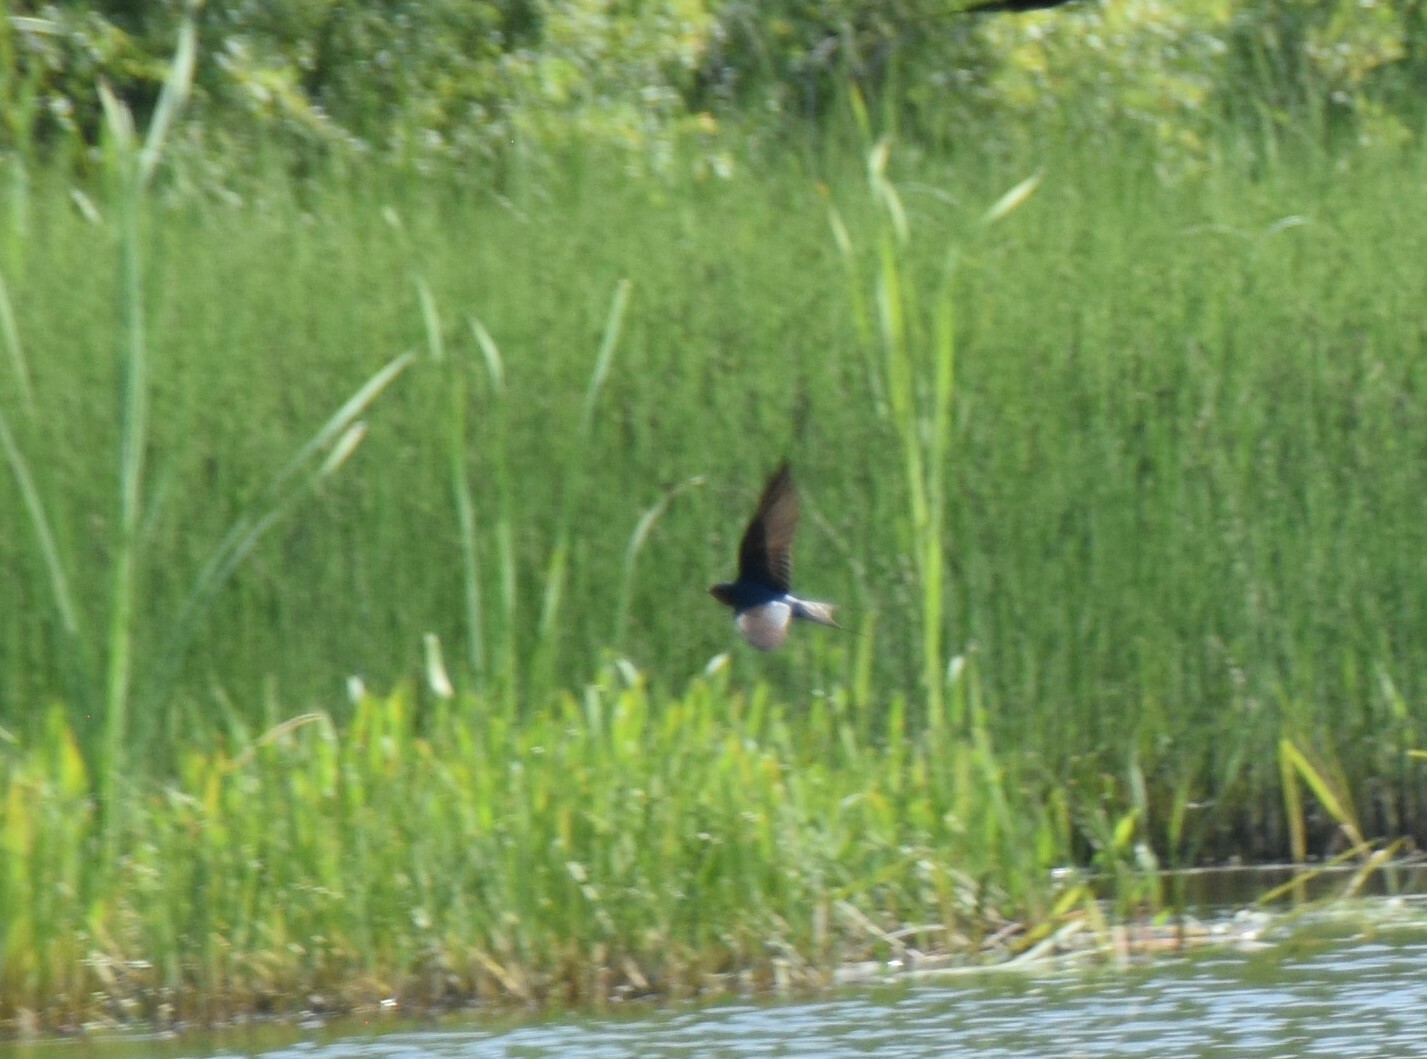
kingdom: Animalia
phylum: Chordata
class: Aves
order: Passeriformes
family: Hirundinidae
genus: Hirundo
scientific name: Hirundo rustica
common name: Barn swallow
